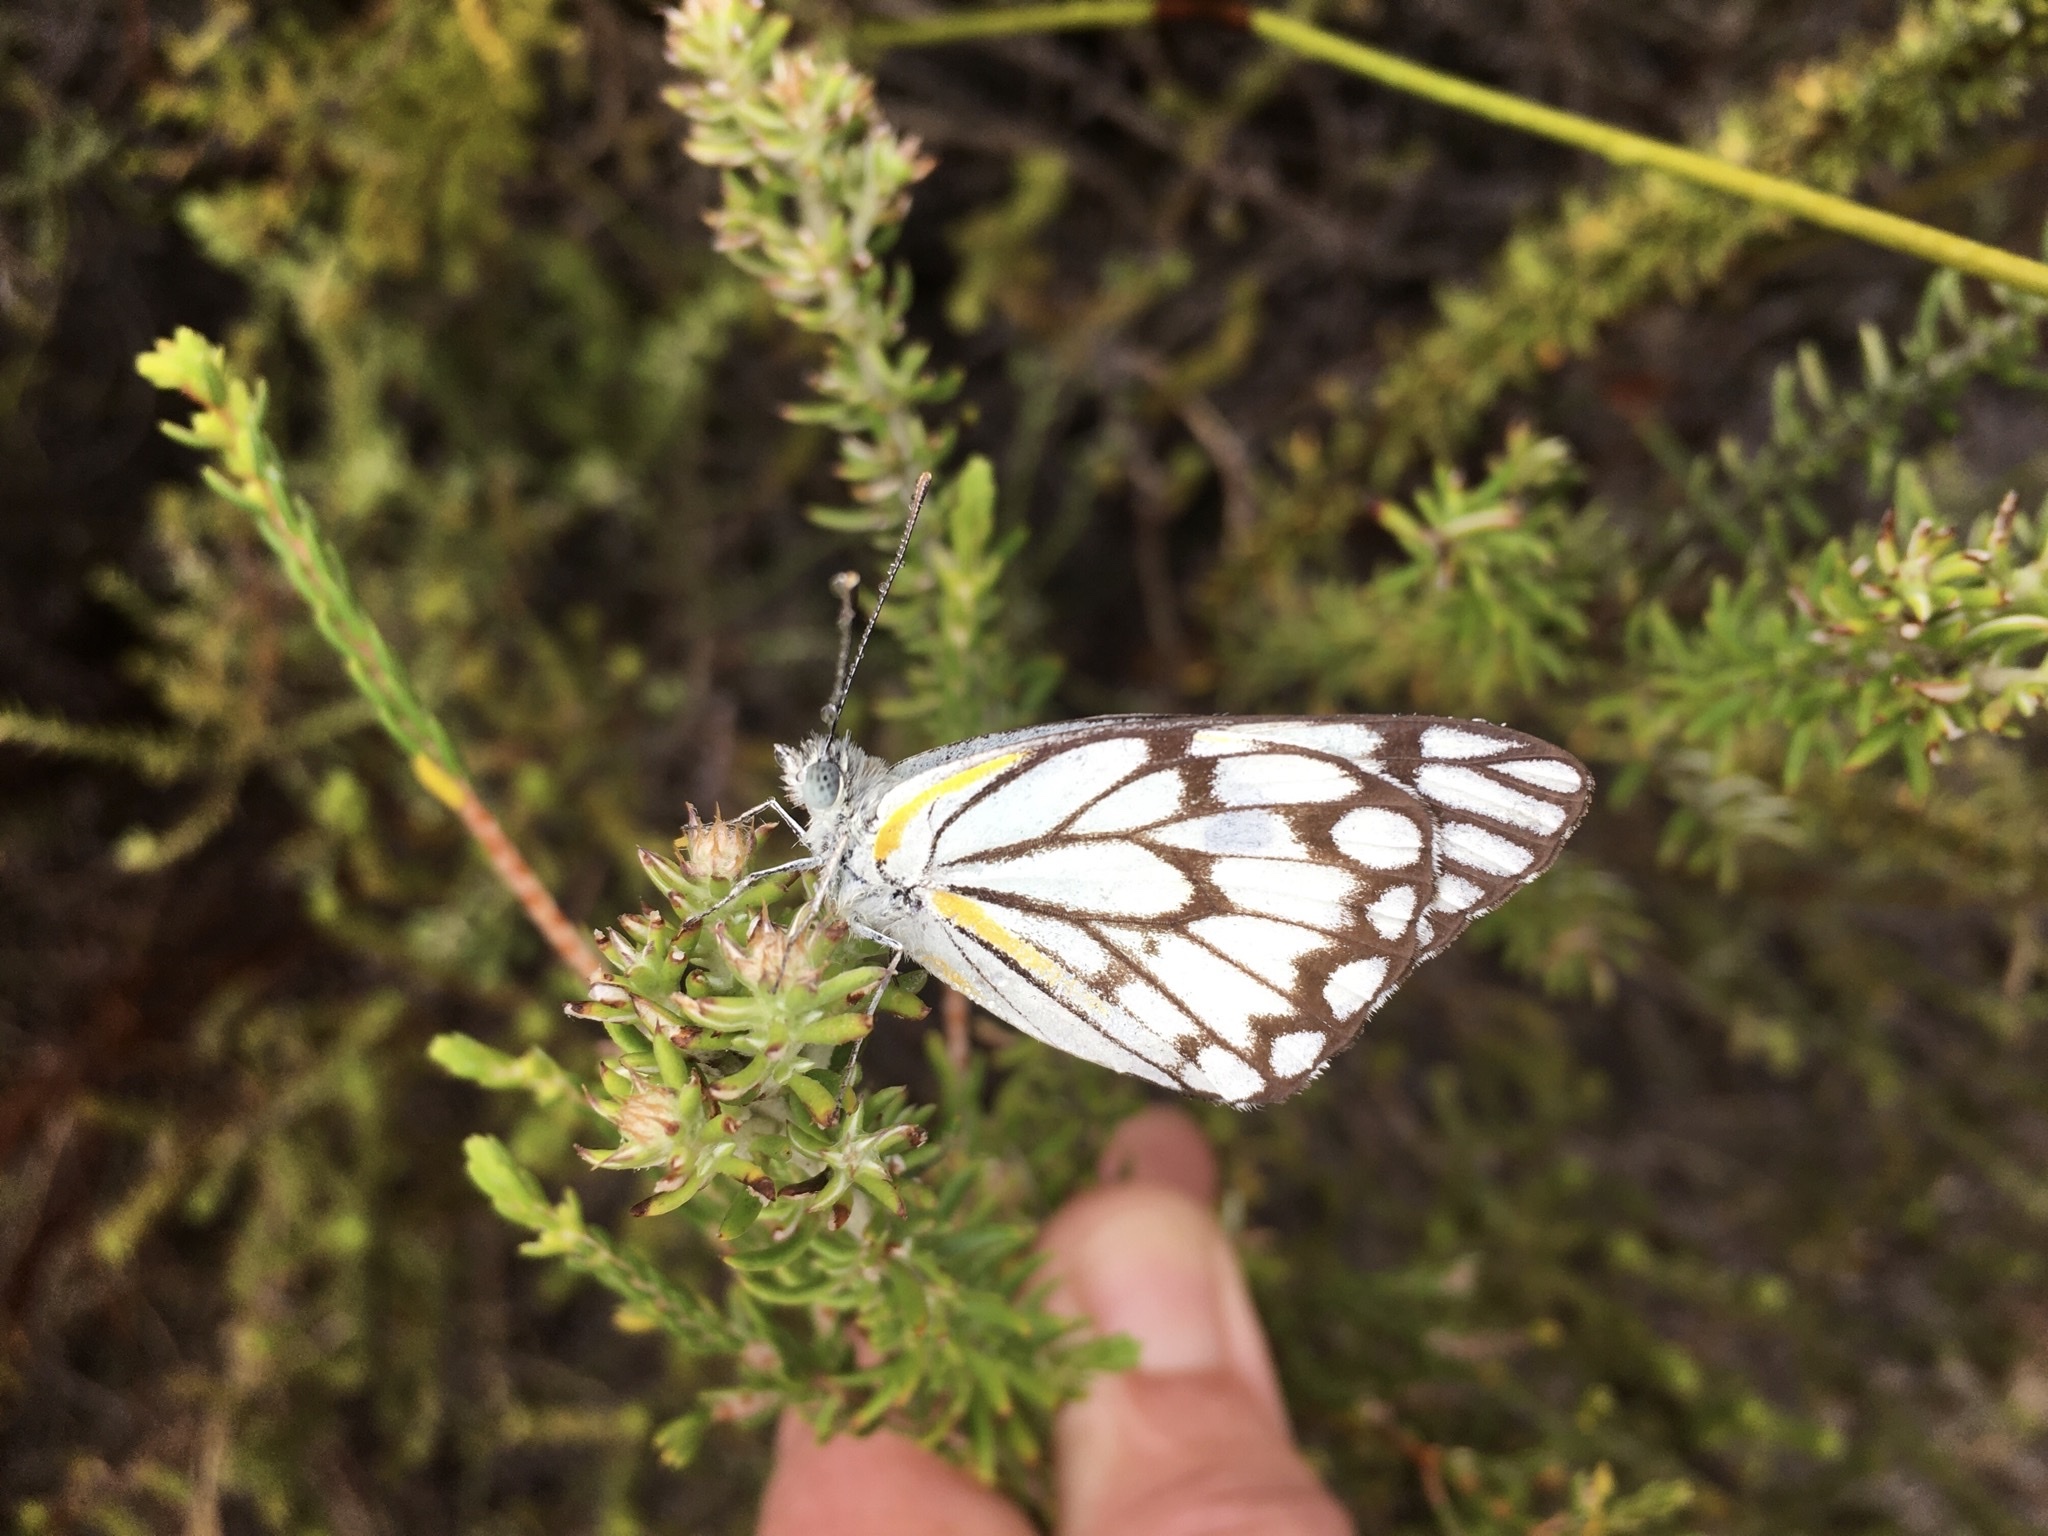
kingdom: Animalia
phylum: Arthropoda
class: Insecta
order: Lepidoptera
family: Pieridae
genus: Belenois
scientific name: Belenois aurota
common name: Brown-veined white
